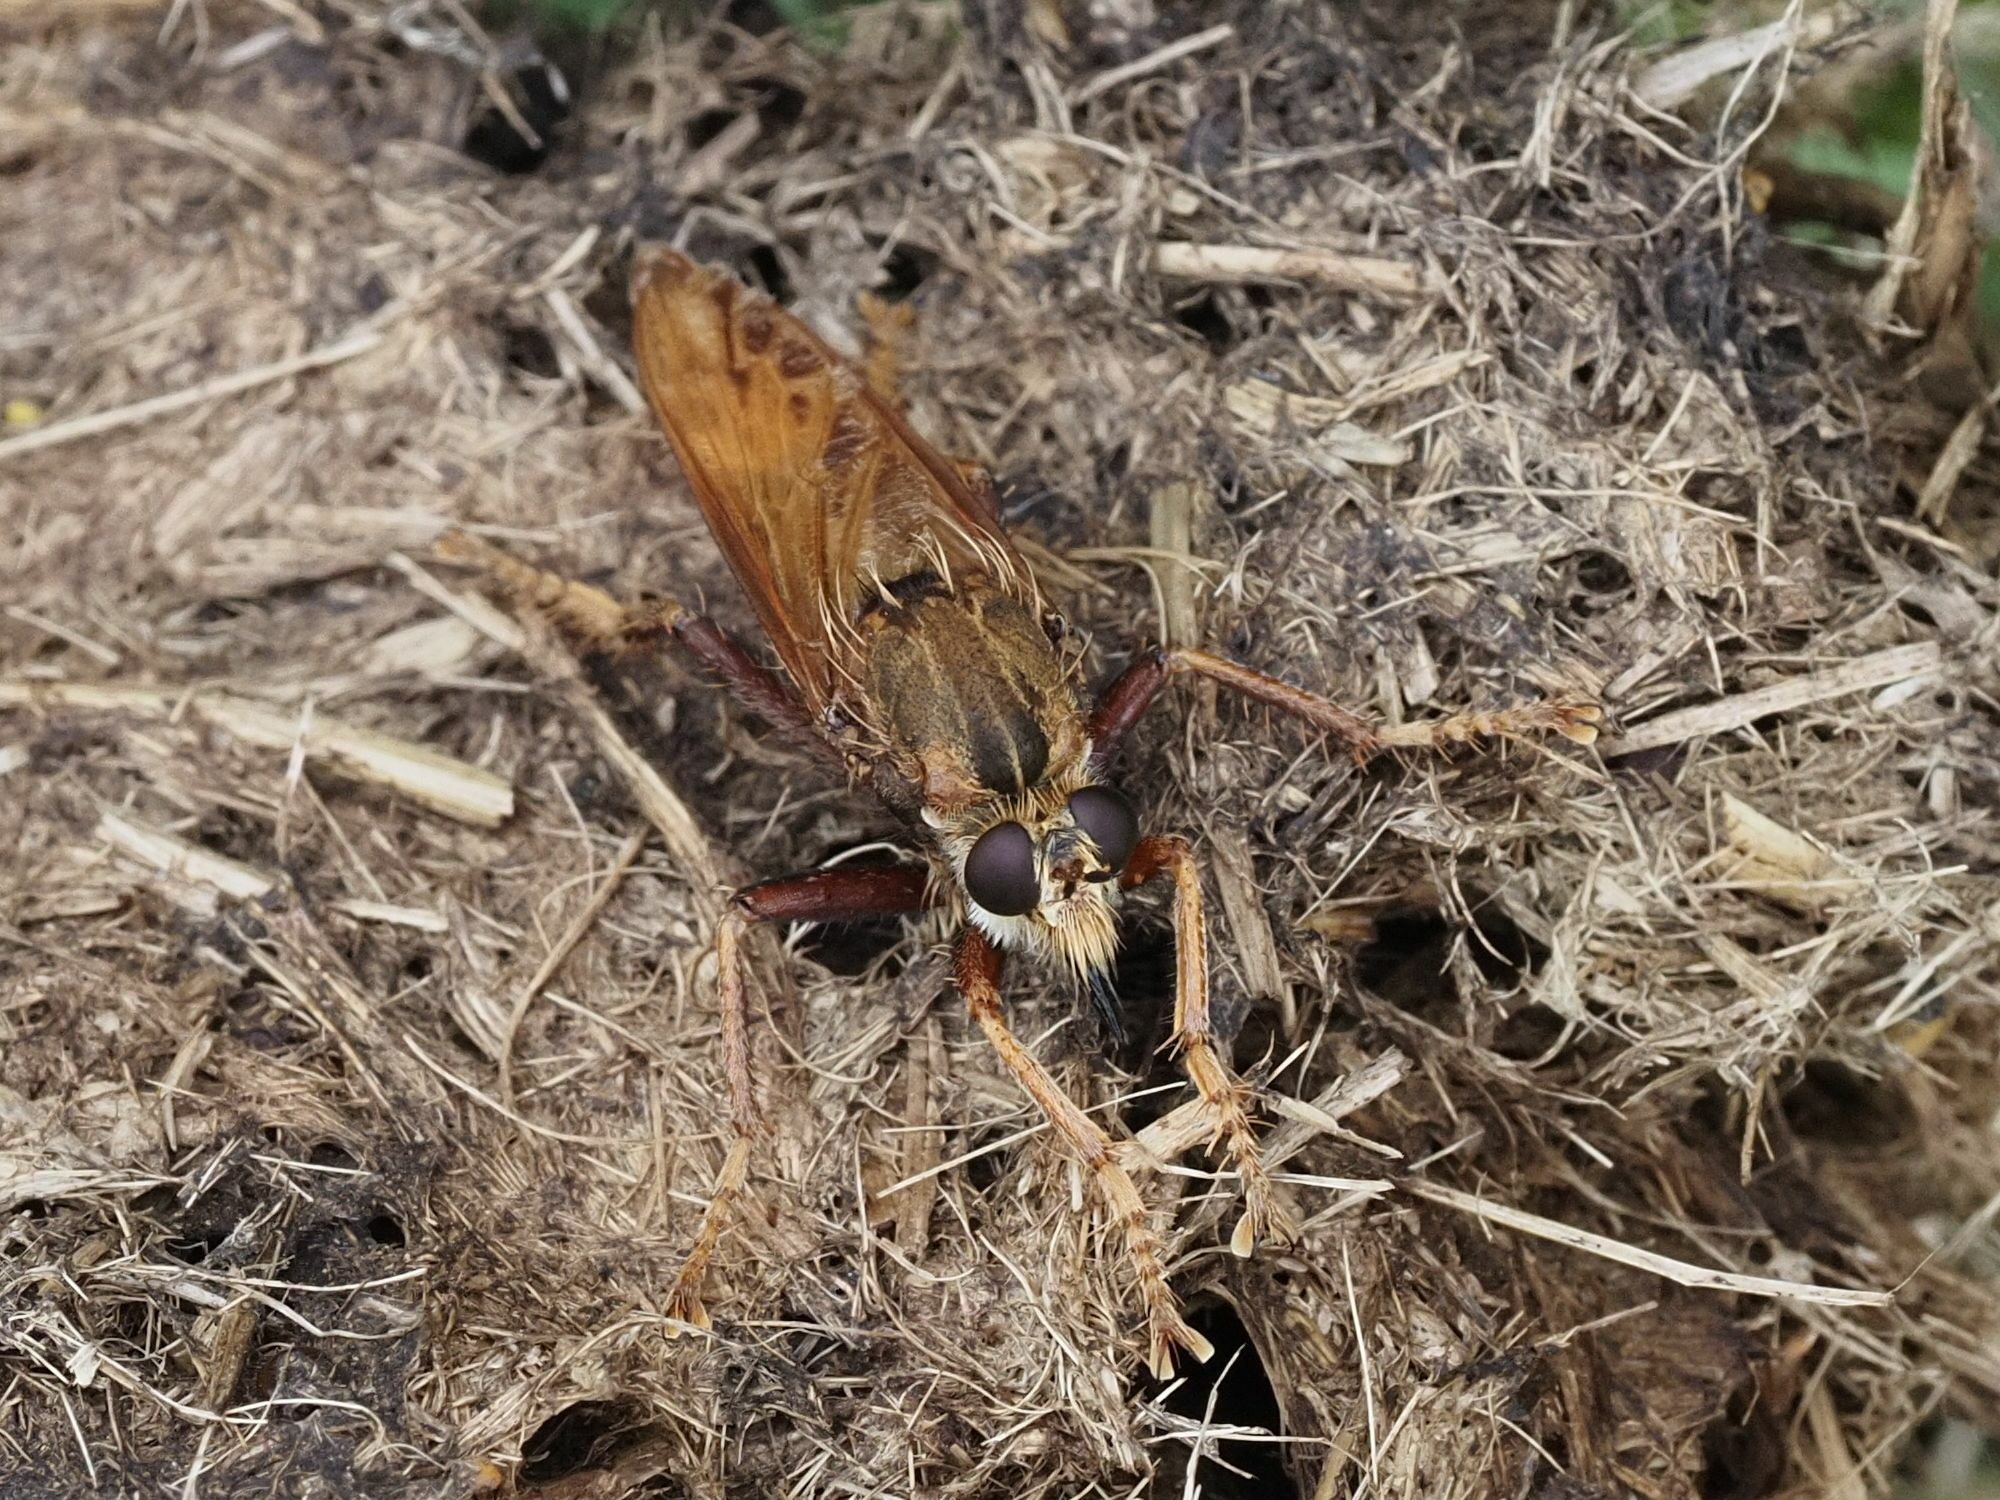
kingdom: Animalia
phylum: Arthropoda
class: Insecta
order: Diptera
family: Asilidae
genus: Asilus
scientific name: Asilus crabroniformis
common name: Hornet robberfly
